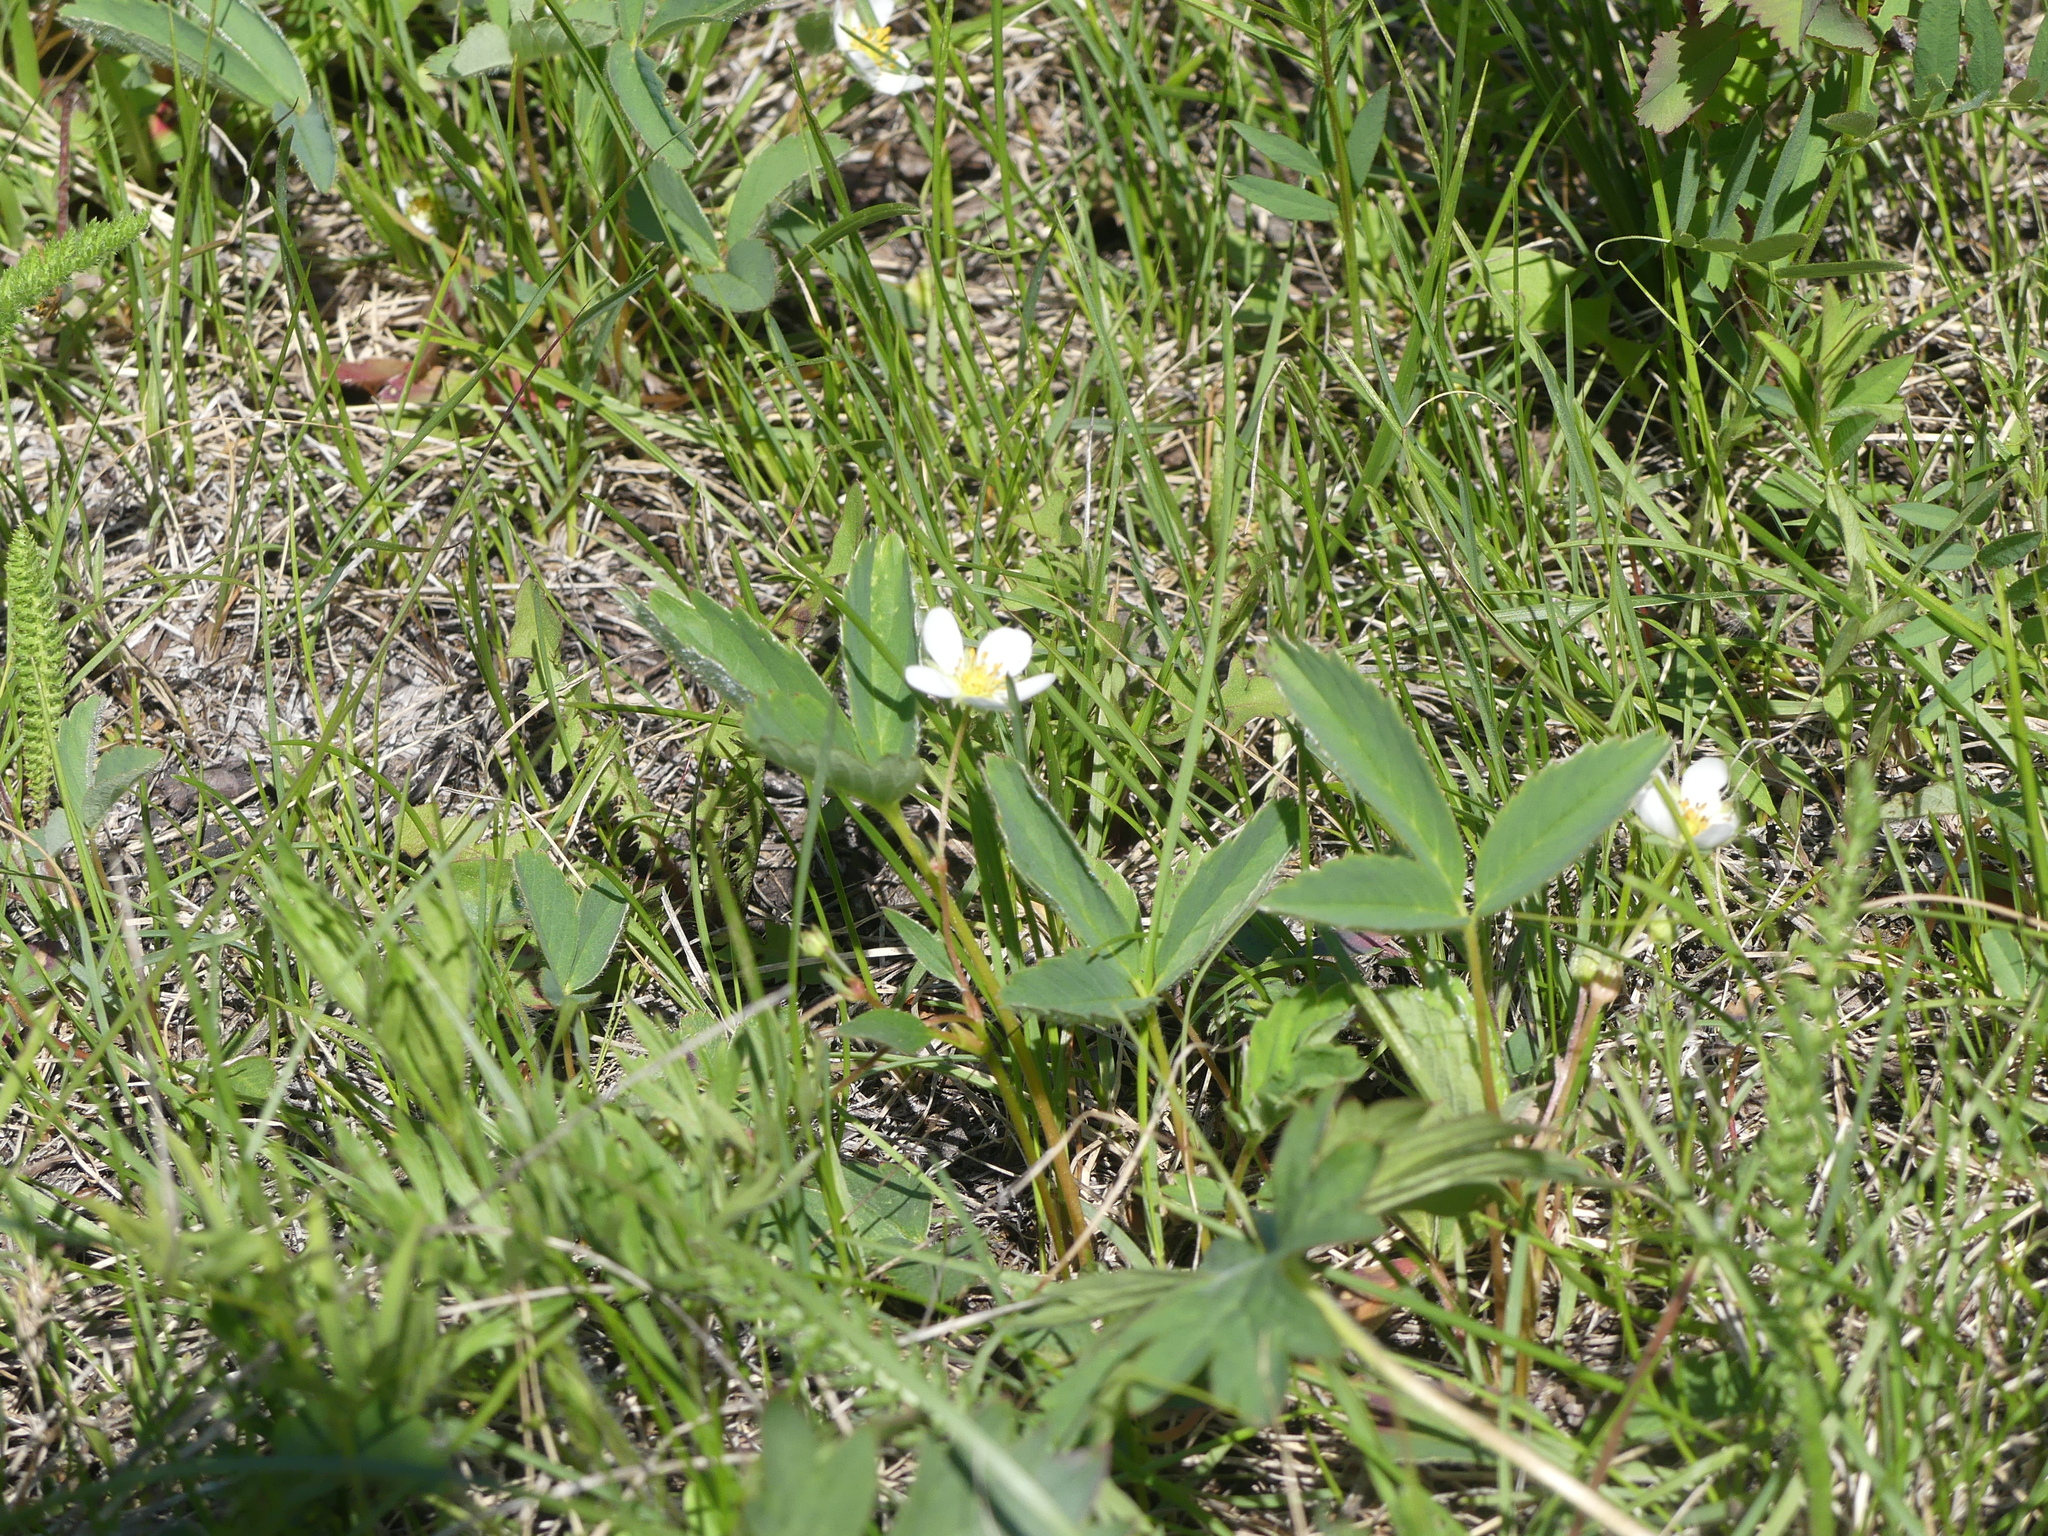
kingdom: Plantae
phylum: Tracheophyta
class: Magnoliopsida
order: Rosales
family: Rosaceae
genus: Fragaria
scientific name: Fragaria virginiana
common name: Thickleaved wild strawberry
